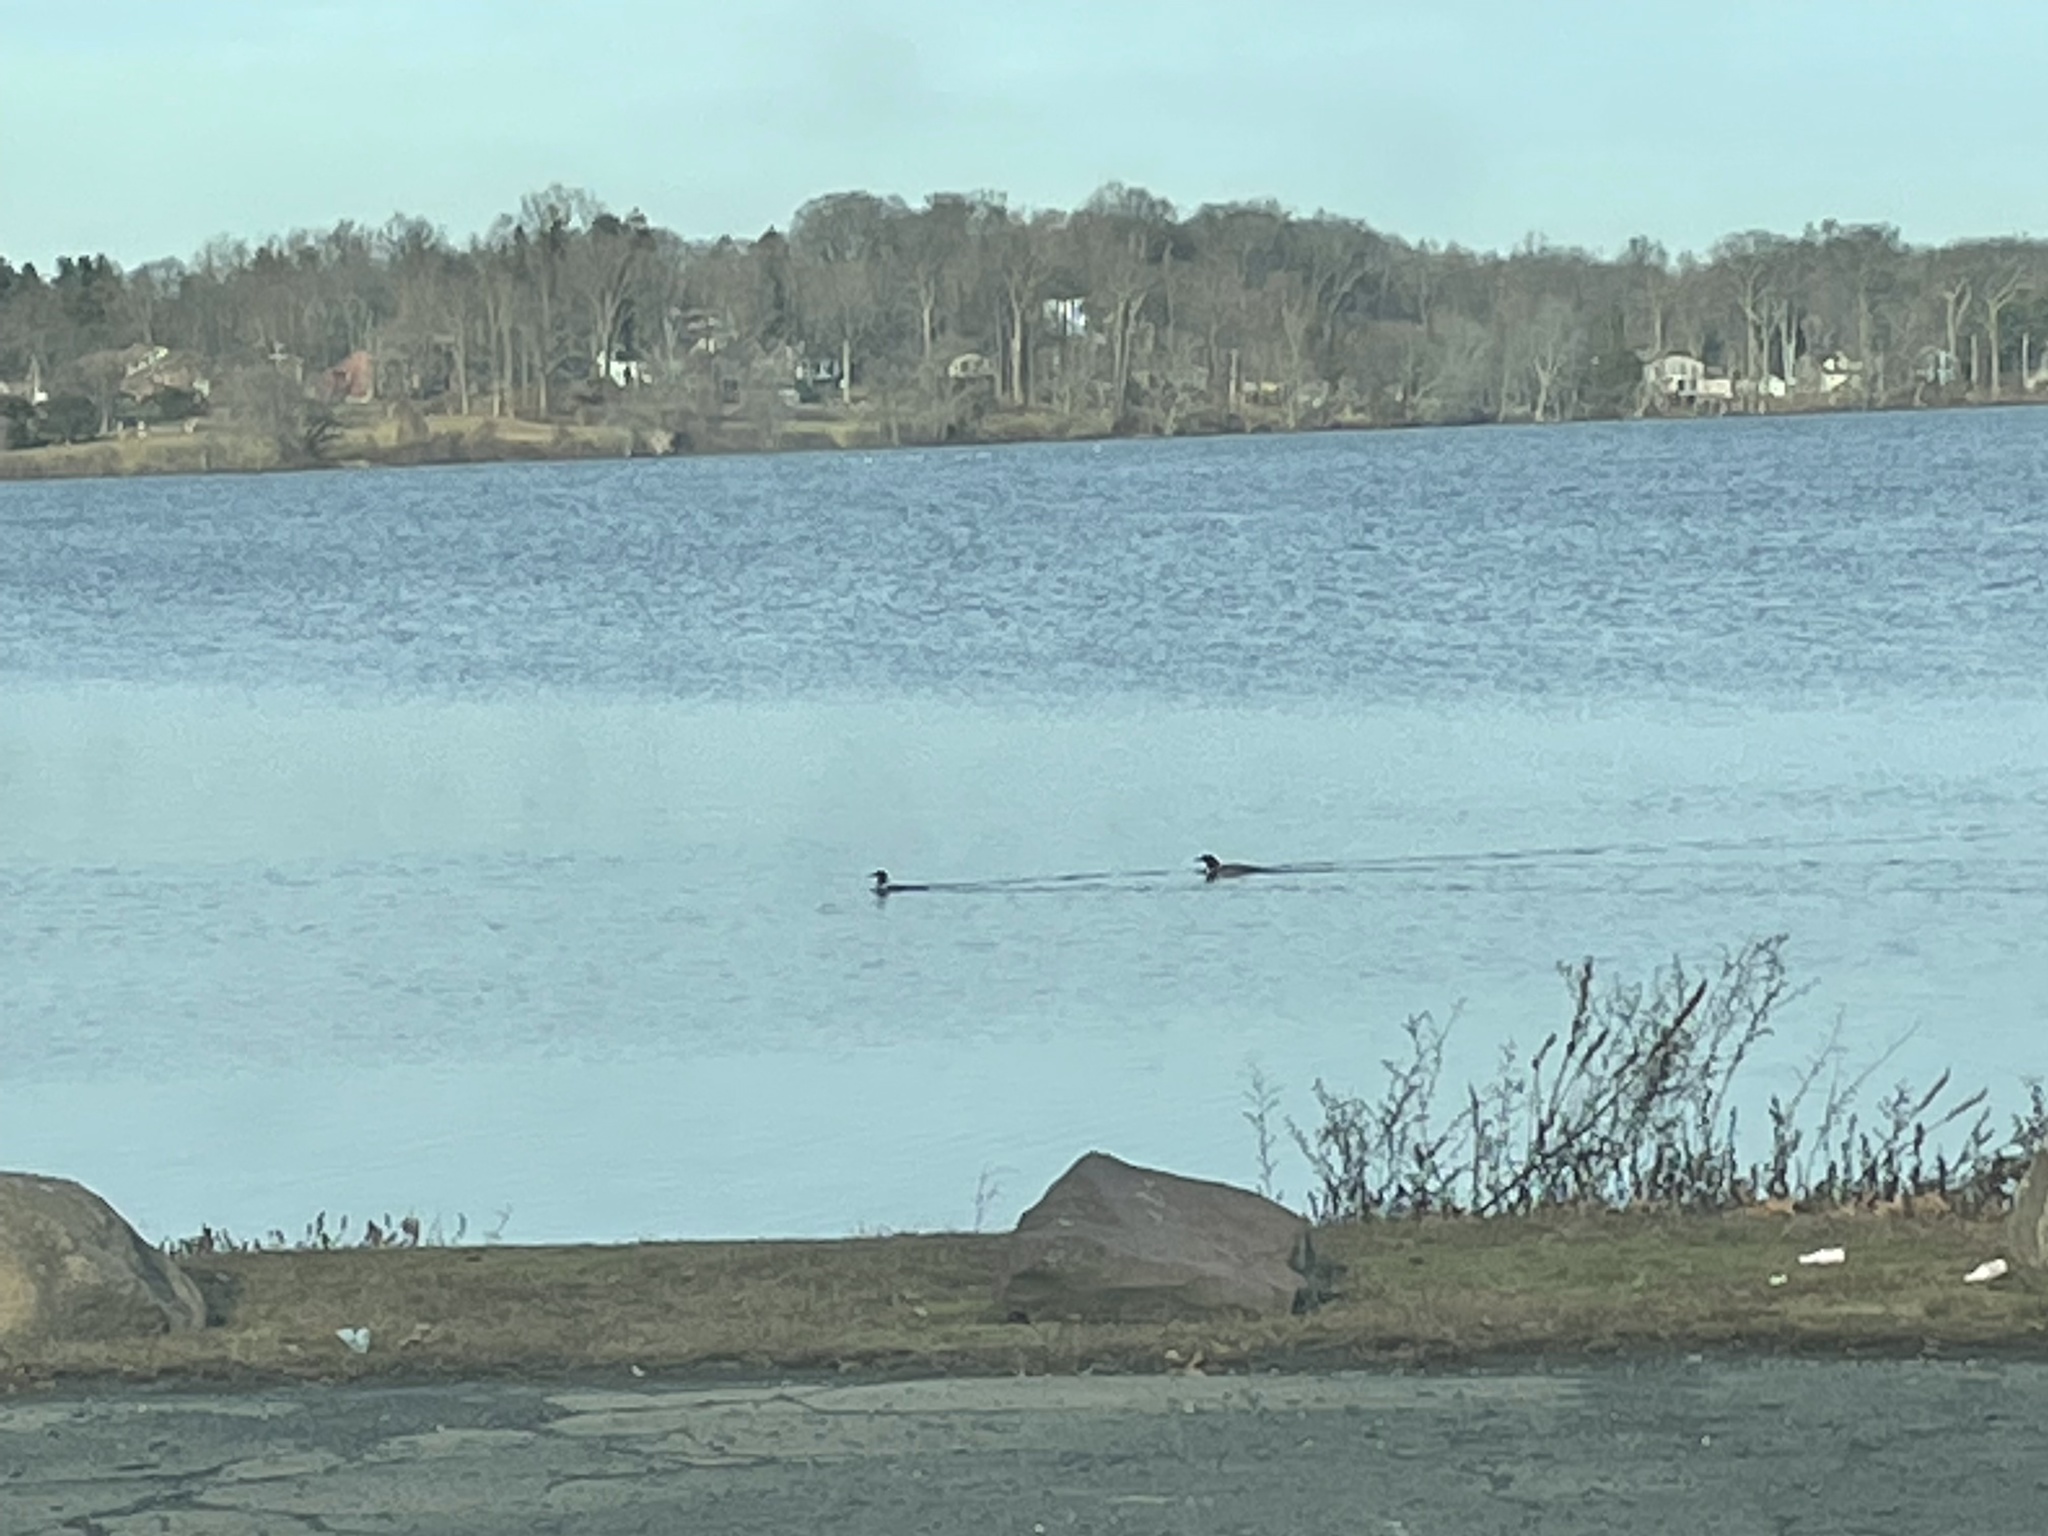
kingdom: Animalia
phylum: Chordata
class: Aves
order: Anseriformes
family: Anatidae
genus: Mergus
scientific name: Mergus merganser
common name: Common merganser
